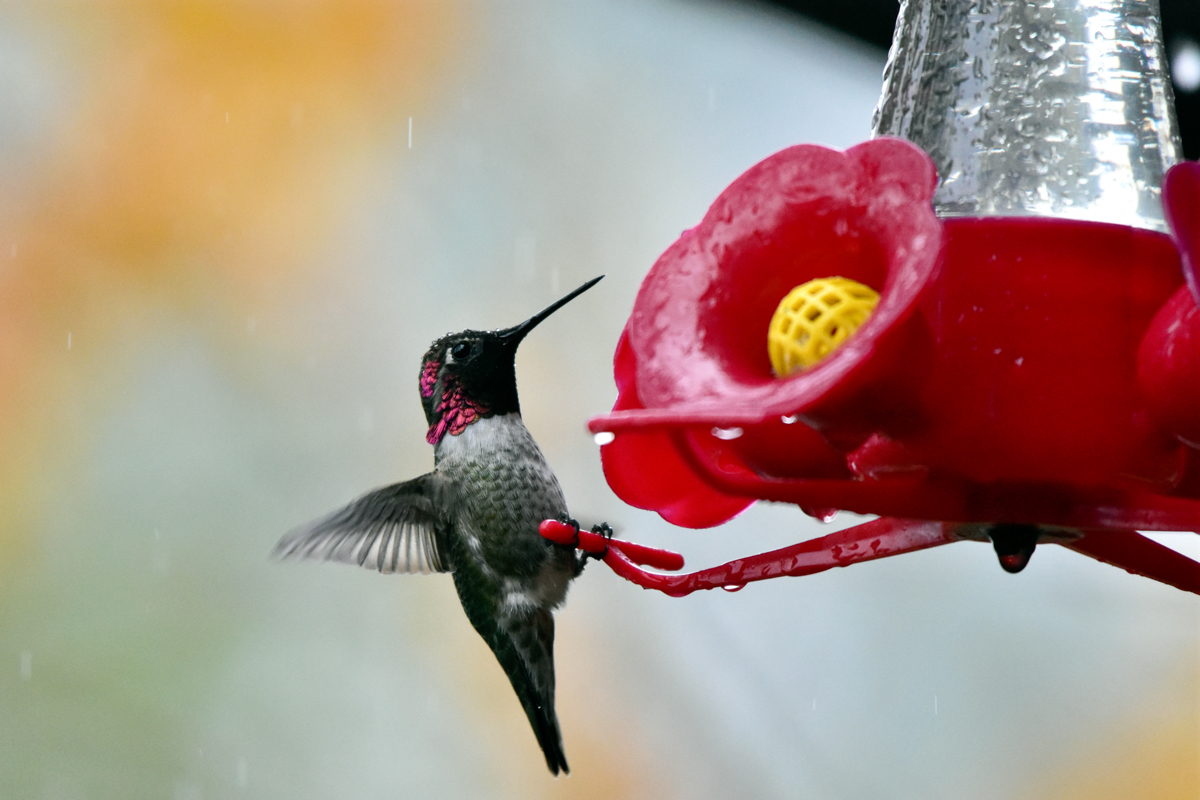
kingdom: Animalia
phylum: Chordata
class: Aves
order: Apodiformes
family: Trochilidae
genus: Calypte
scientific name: Calypte anna
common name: Anna's hummingbird
